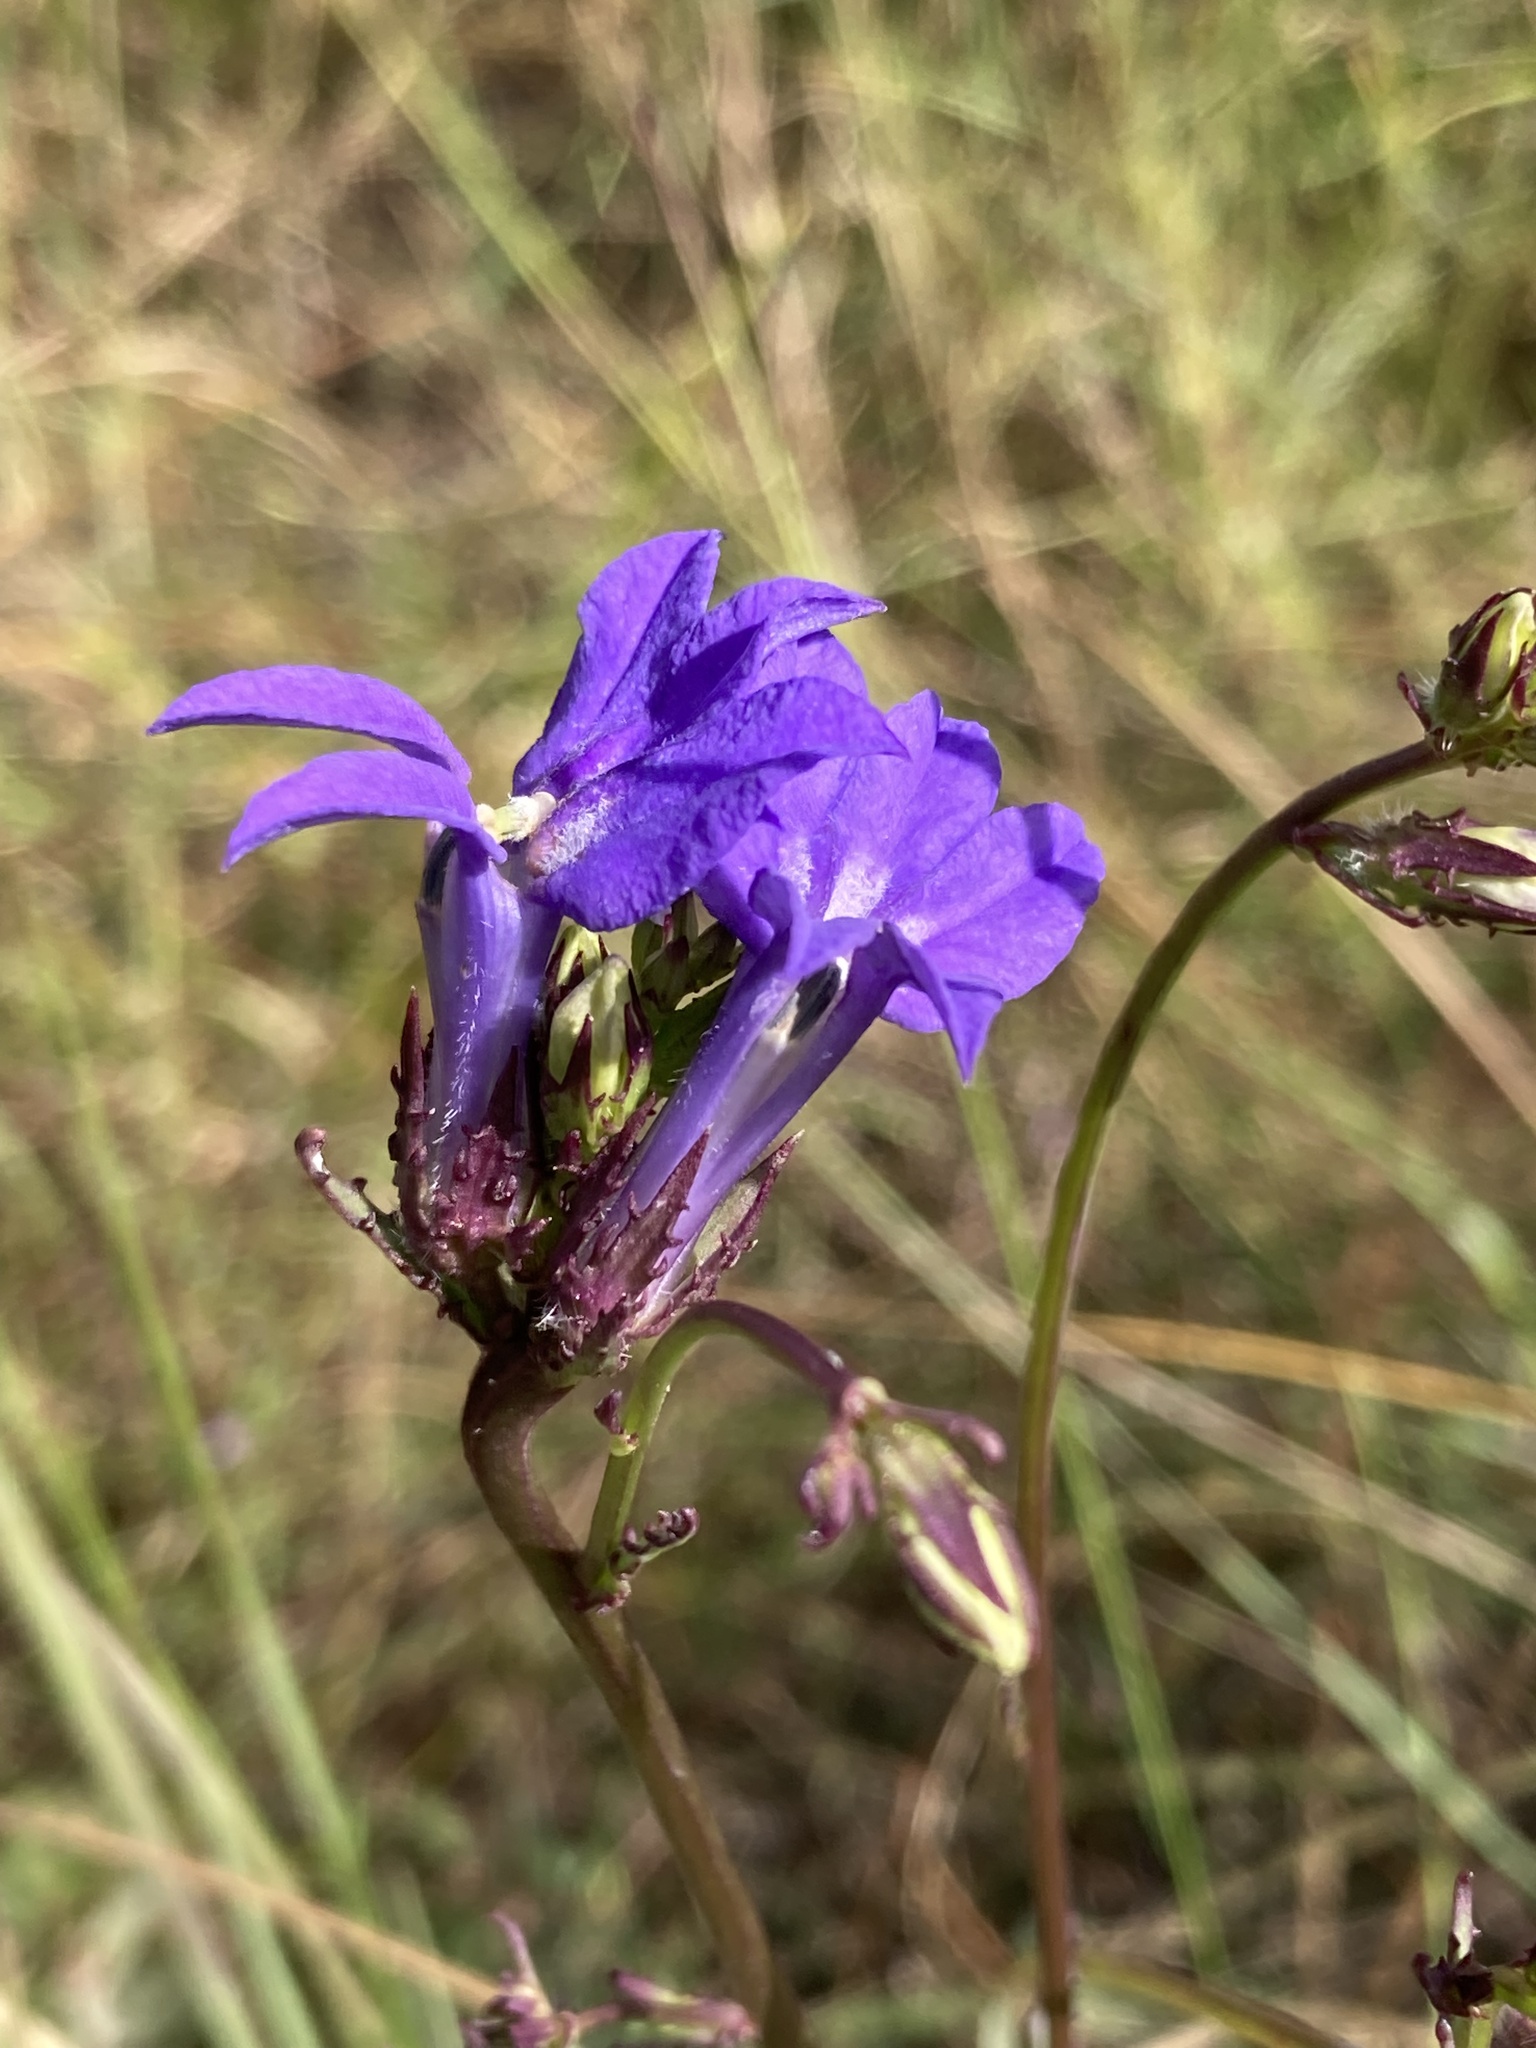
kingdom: Plantae
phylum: Tracheophyta
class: Magnoliopsida
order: Asterales
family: Campanulaceae
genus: Lobelia
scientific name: Lobelia glandulosa
